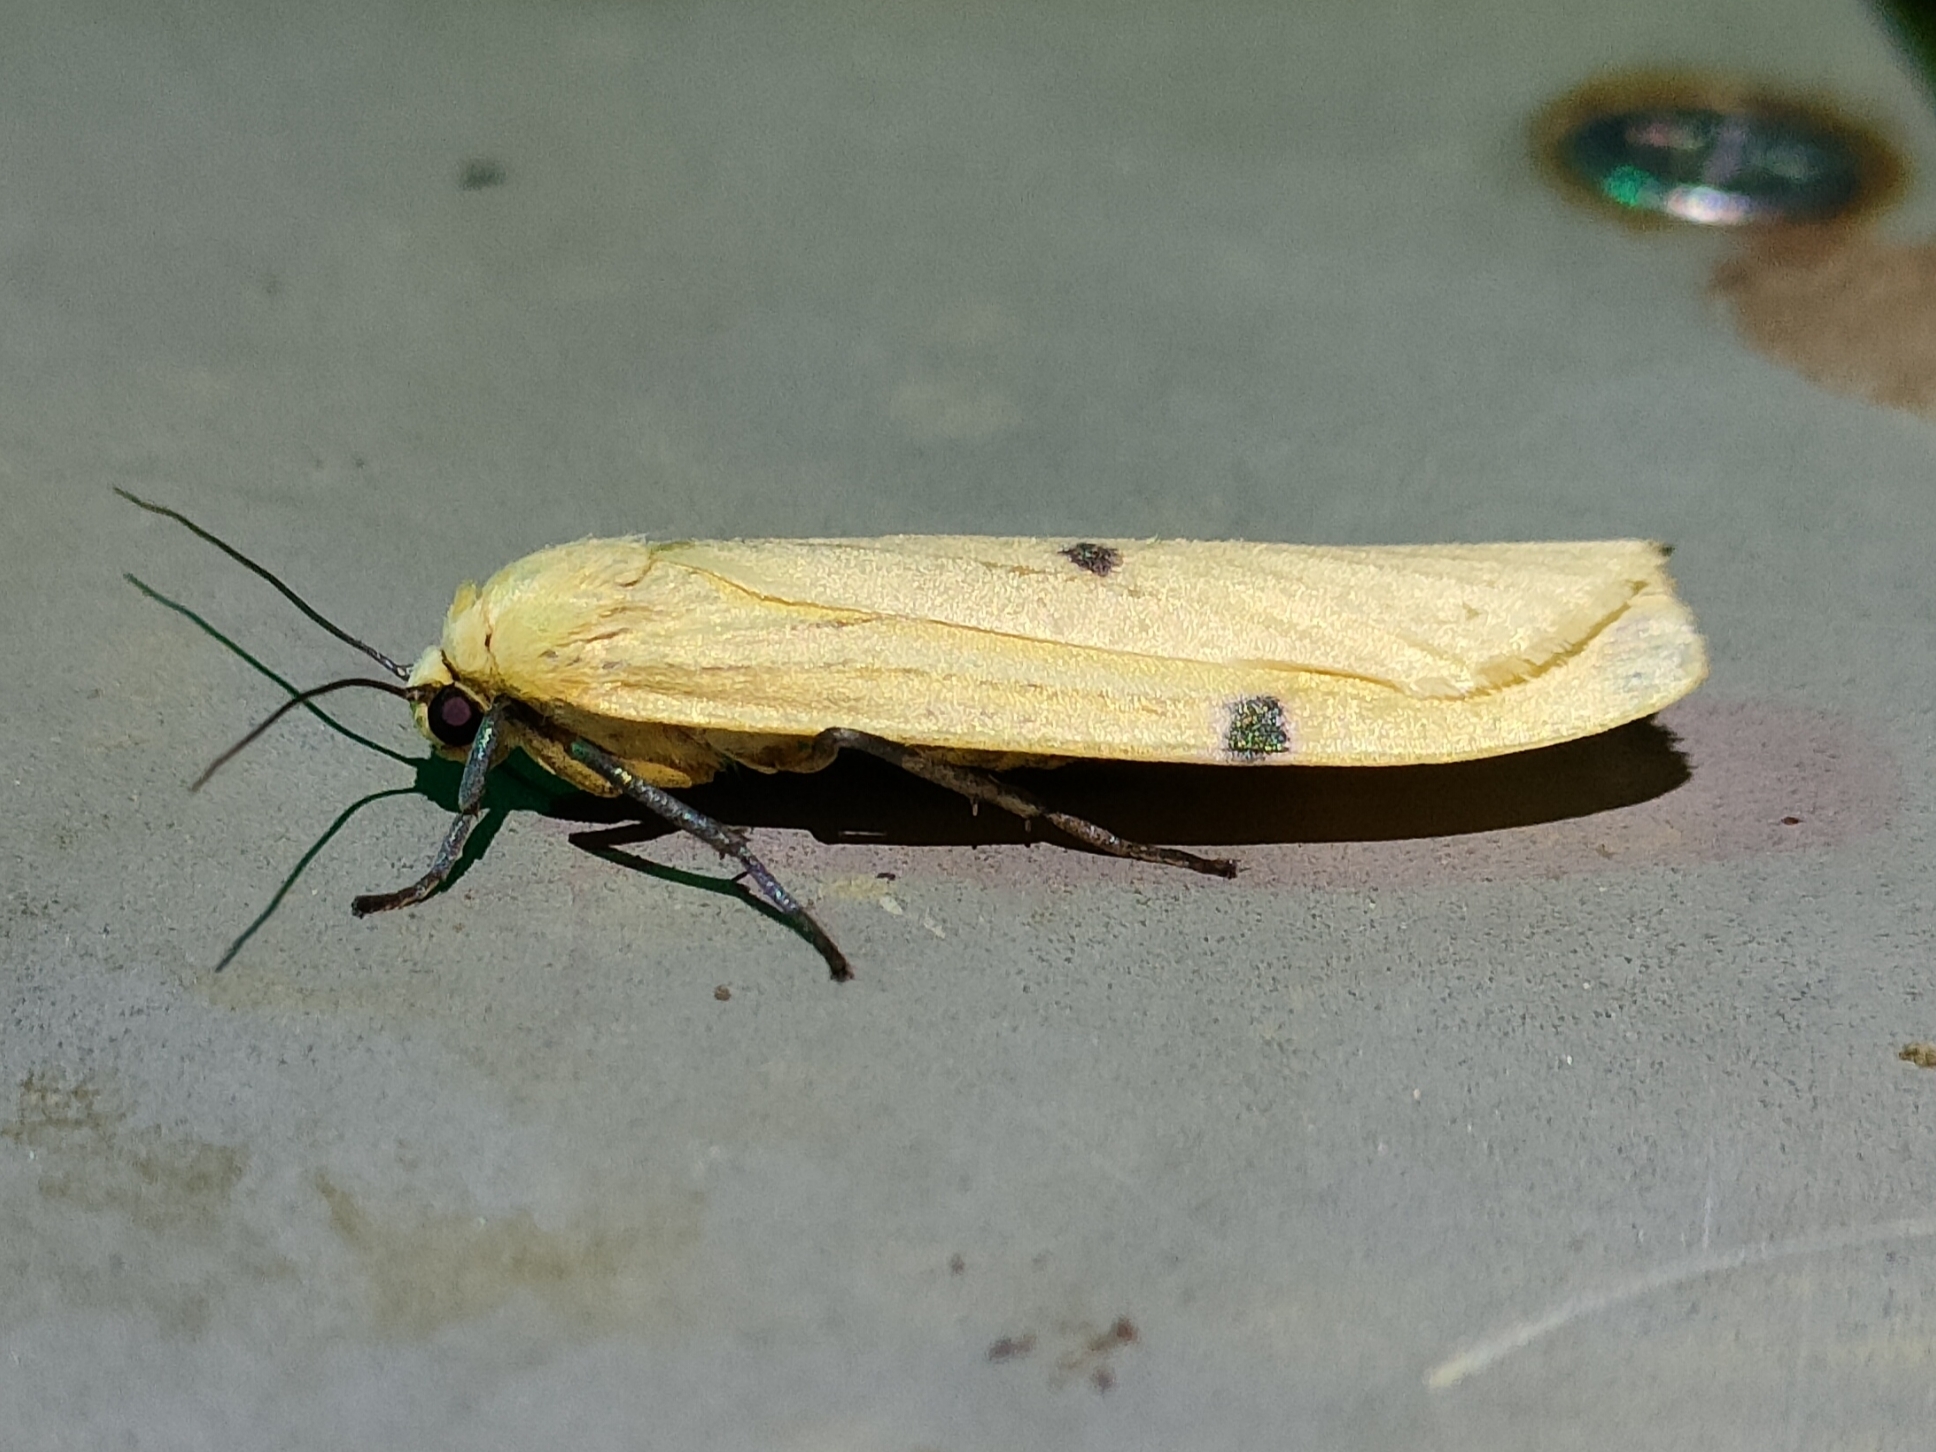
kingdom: Animalia
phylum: Arthropoda
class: Insecta
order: Lepidoptera
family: Erebidae
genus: Lithosia
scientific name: Lithosia quadra
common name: Four-spotted footman
